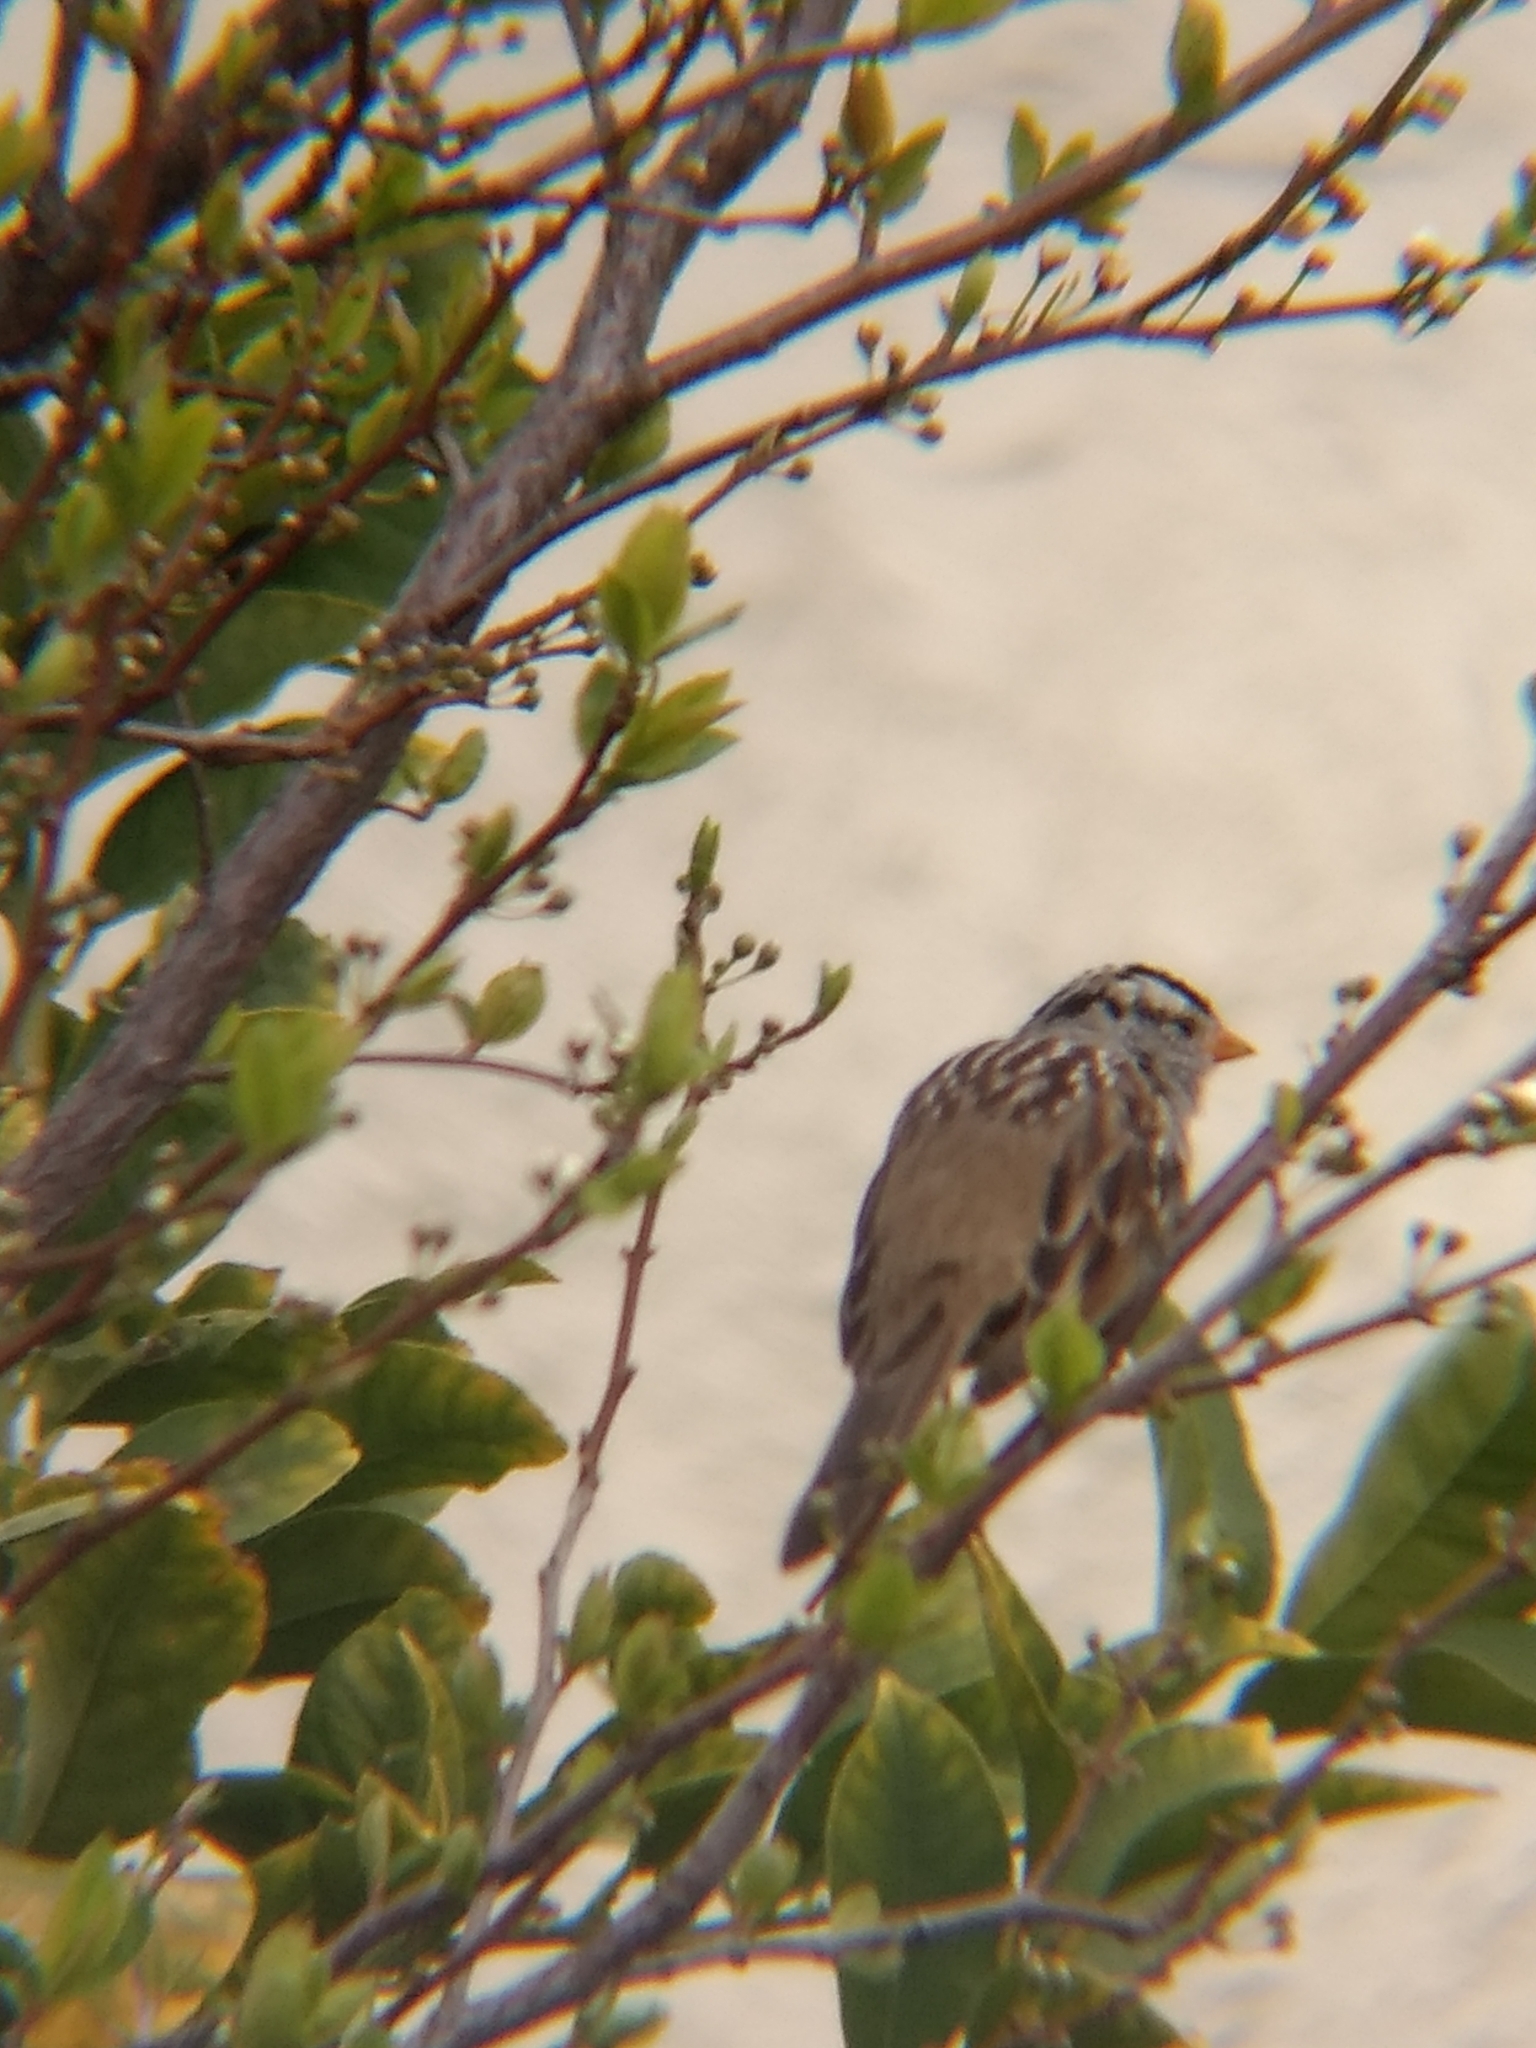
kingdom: Animalia
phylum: Chordata
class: Aves
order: Passeriformes
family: Passerellidae
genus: Zonotrichia
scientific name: Zonotrichia leucophrys
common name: White-crowned sparrow
